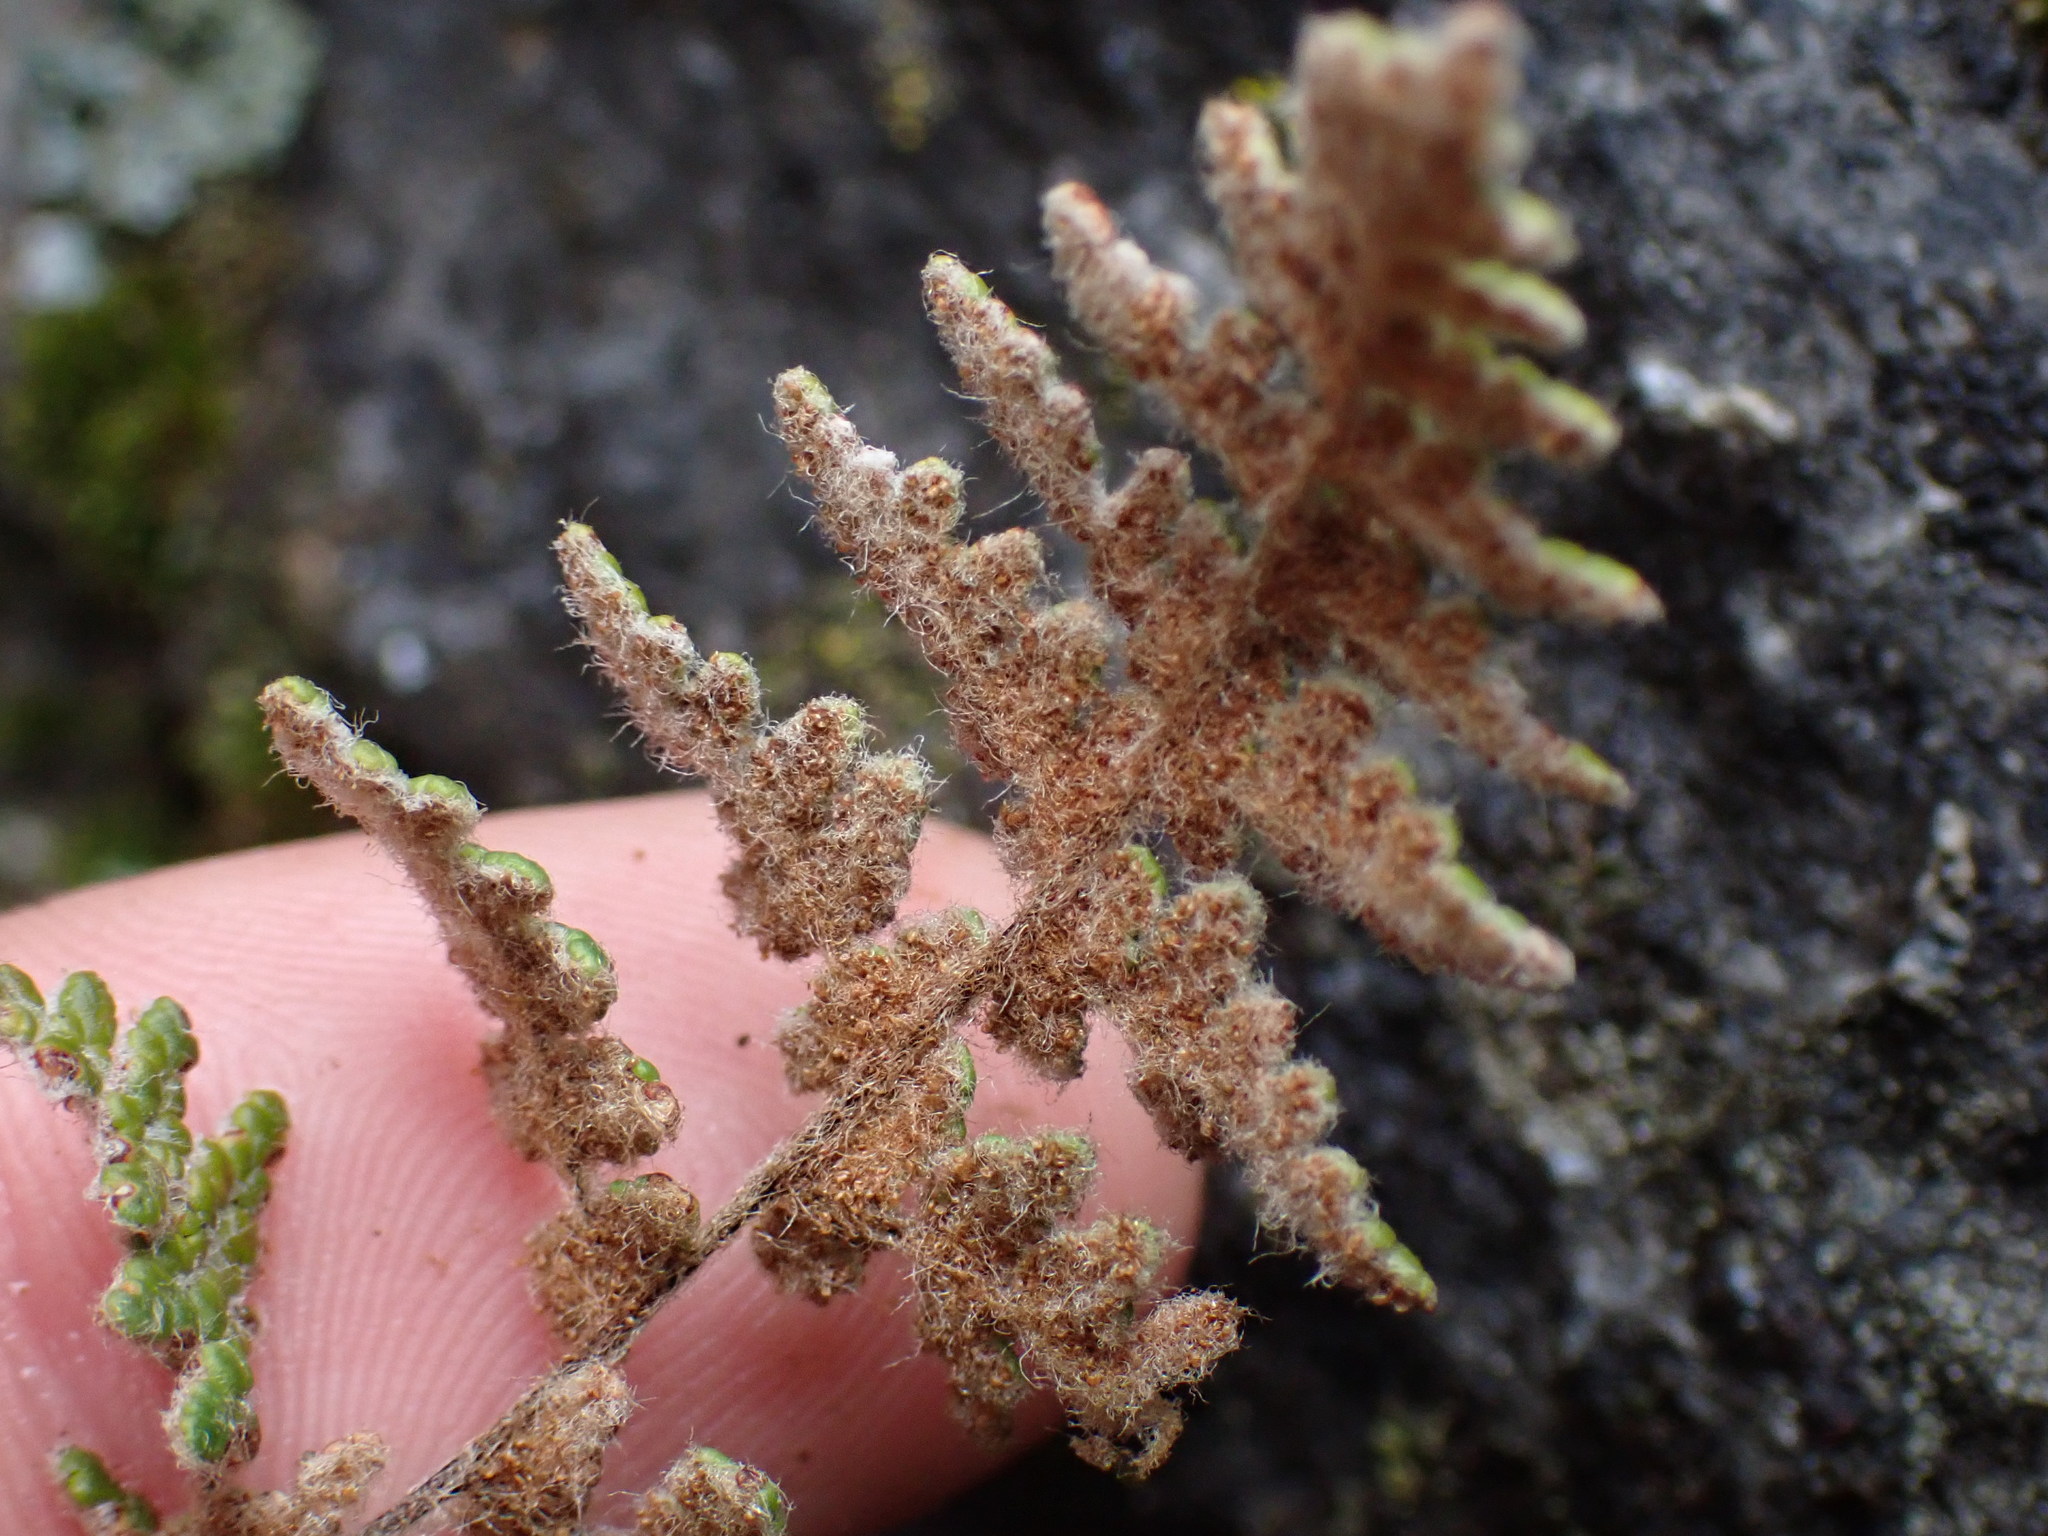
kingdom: Plantae
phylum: Tracheophyta
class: Polypodiopsida
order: Polypodiales
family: Pteridaceae
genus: Myriopteris
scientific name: Myriopteris gracilis
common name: Fee's lip fern
